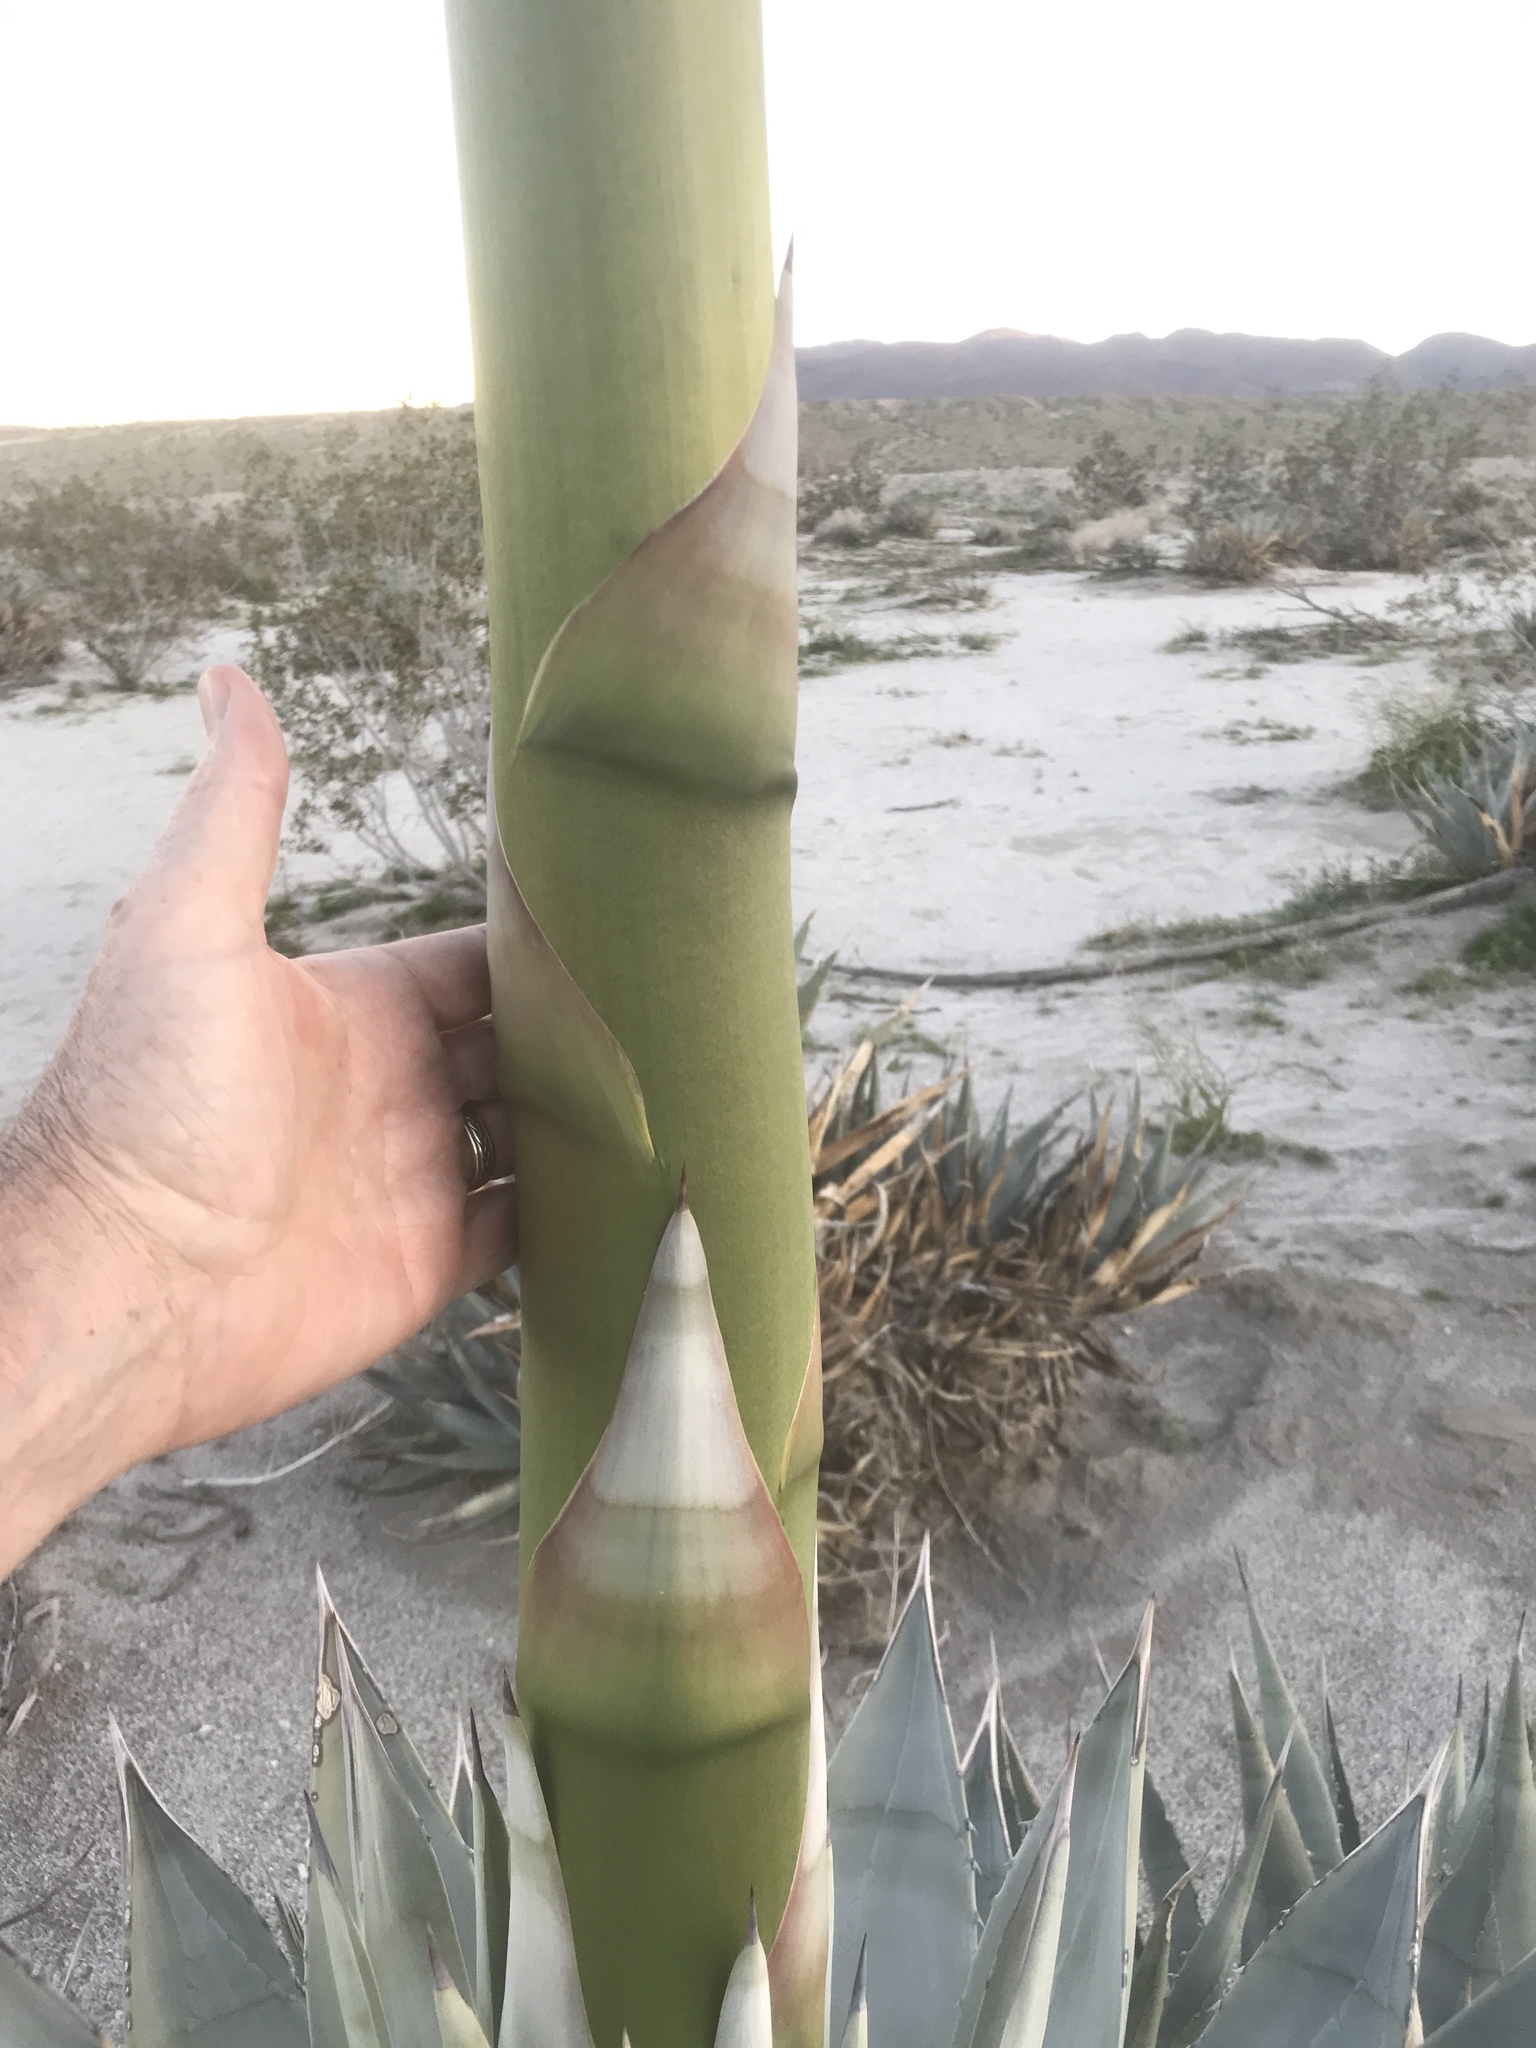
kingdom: Plantae
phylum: Tracheophyta
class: Liliopsida
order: Asparagales
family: Asparagaceae
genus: Agave
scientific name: Agave deserti
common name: Desert agave
